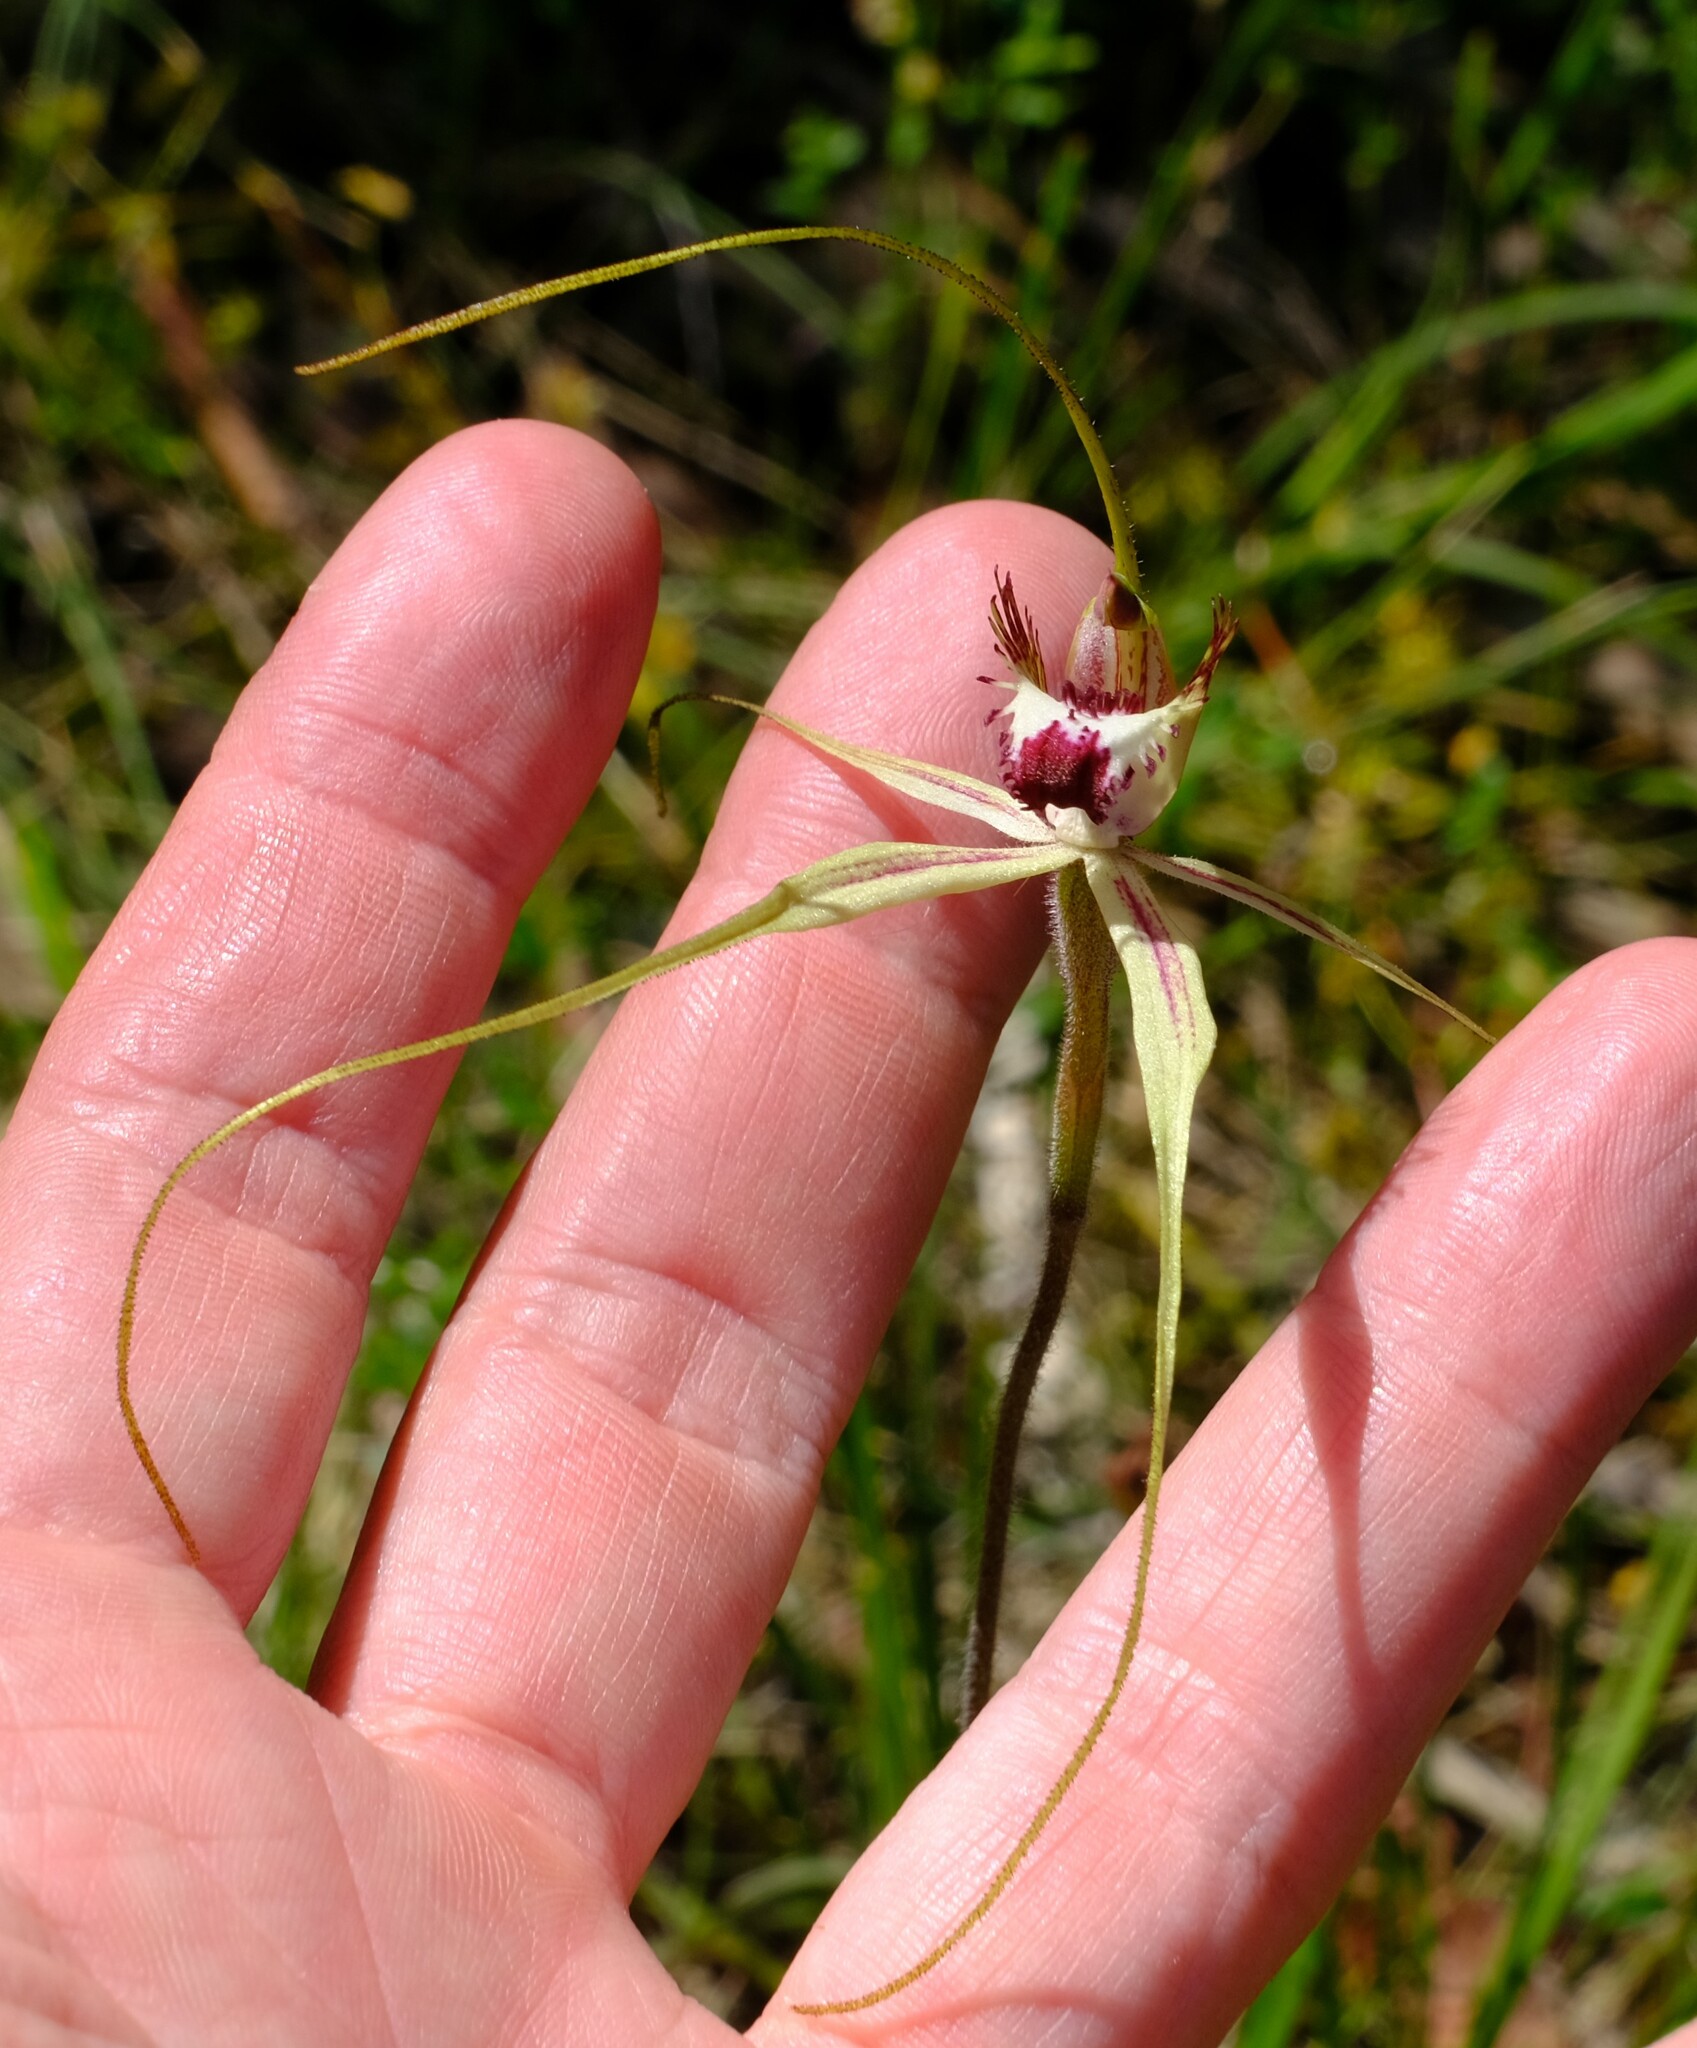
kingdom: Plantae
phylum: Tracheophyta
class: Liliopsida
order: Asparagales
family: Orchidaceae
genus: Caladenia
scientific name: Caladenia
